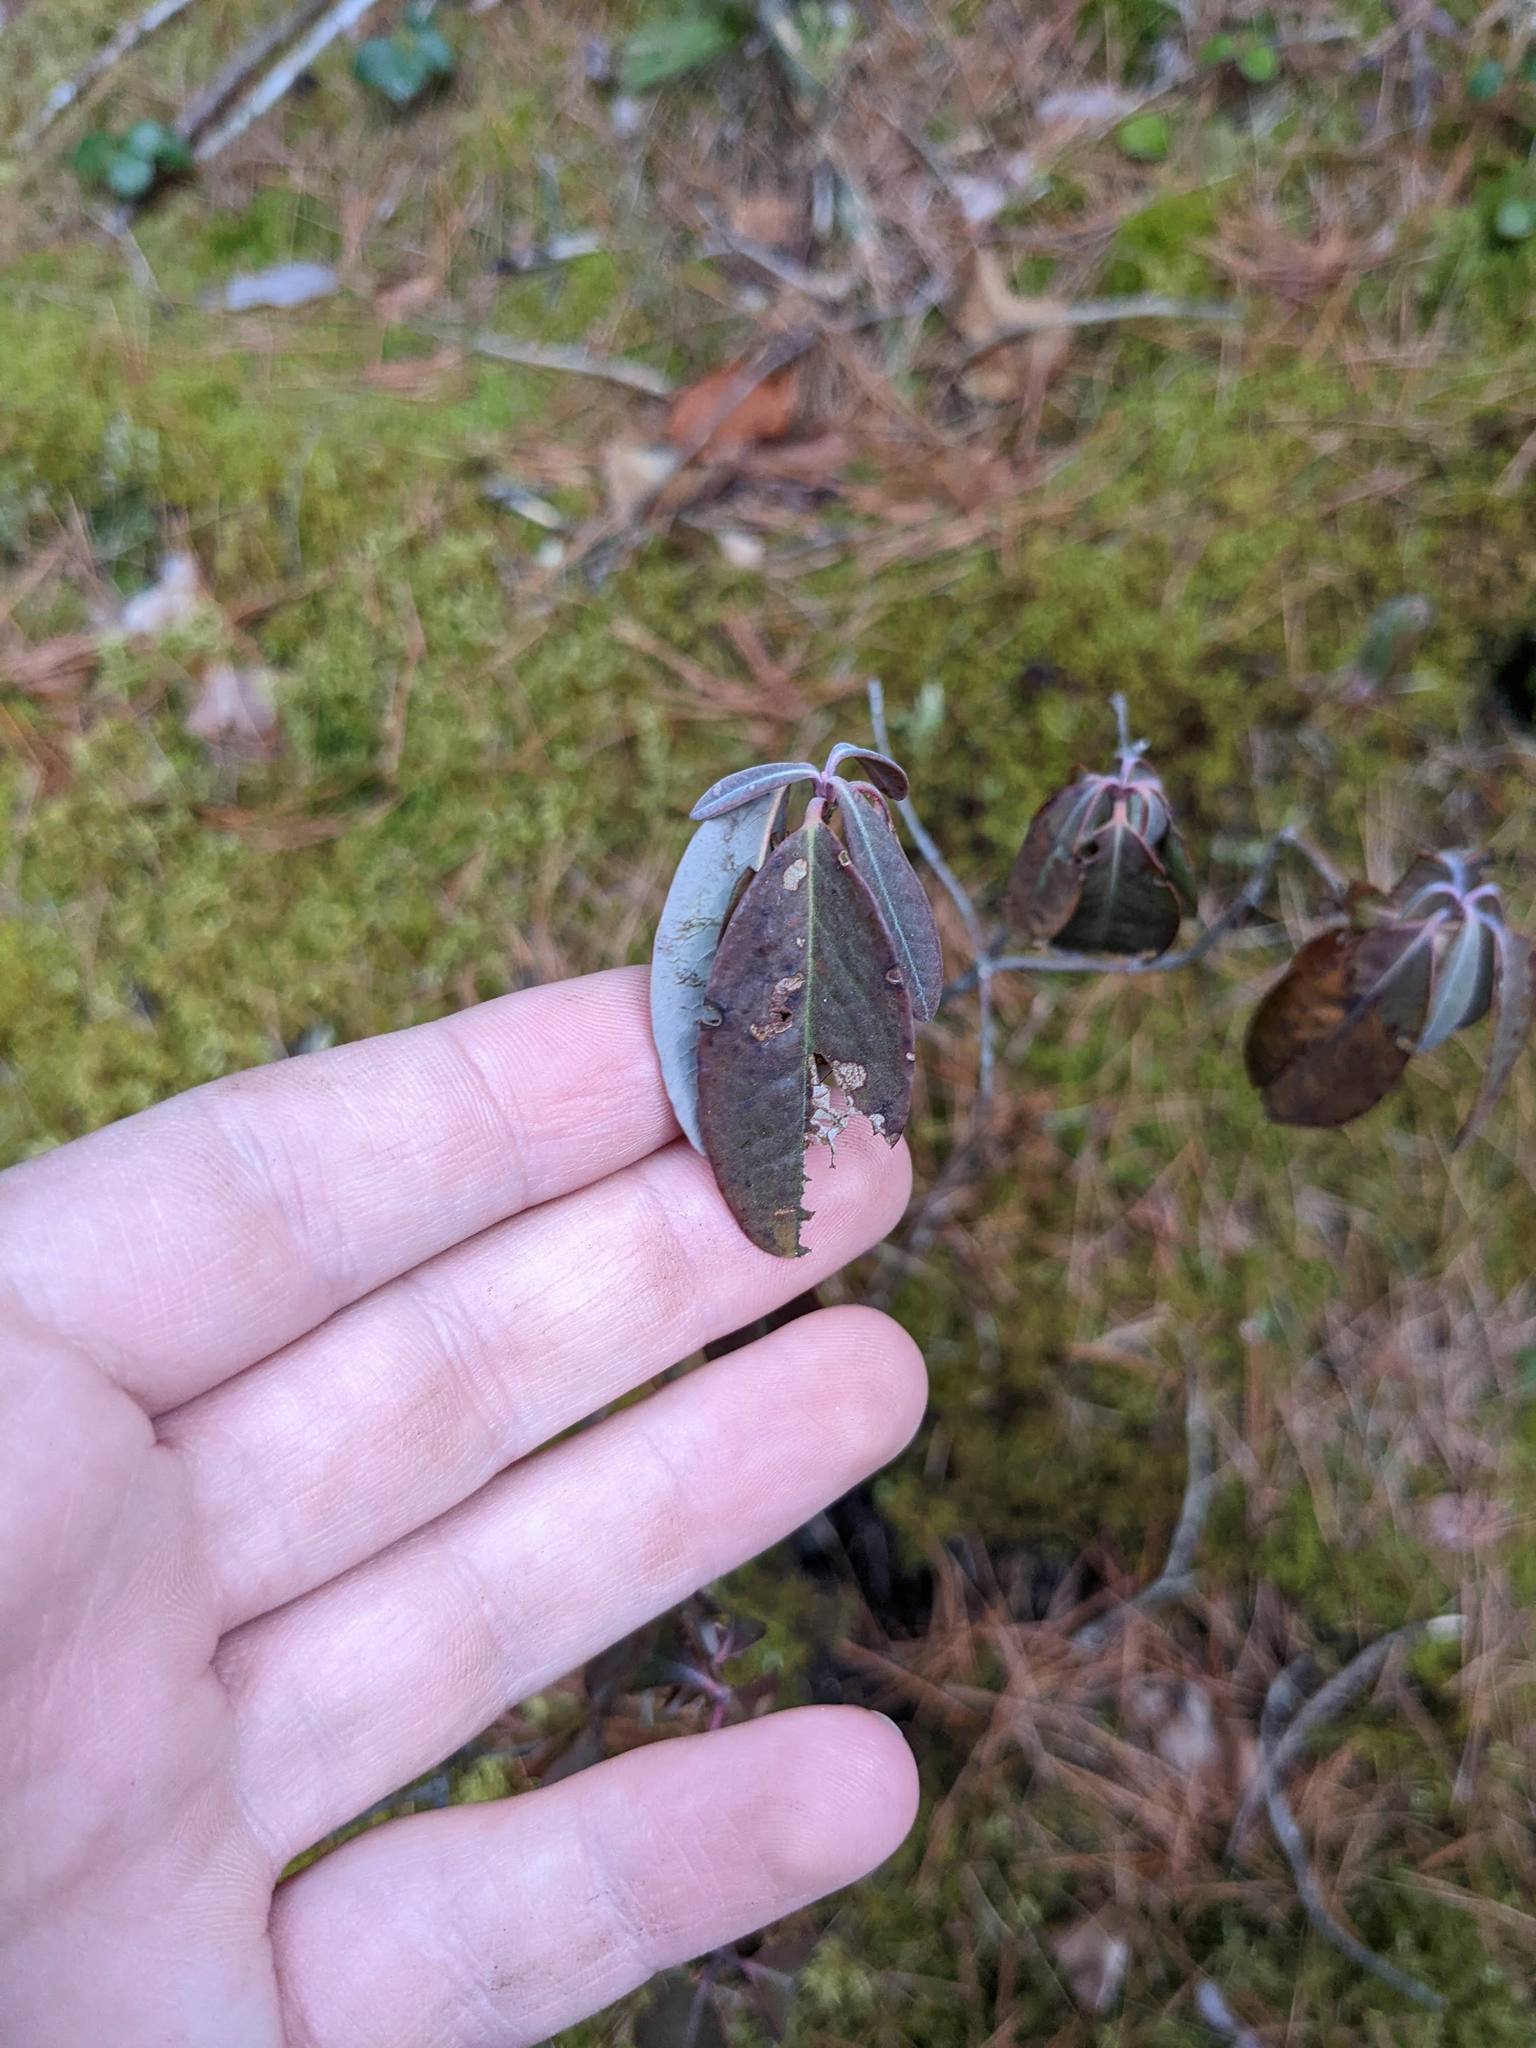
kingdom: Plantae
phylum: Tracheophyta
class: Magnoliopsida
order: Ericales
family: Ericaceae
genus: Kalmia
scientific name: Kalmia angustifolia
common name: Sheep-laurel
